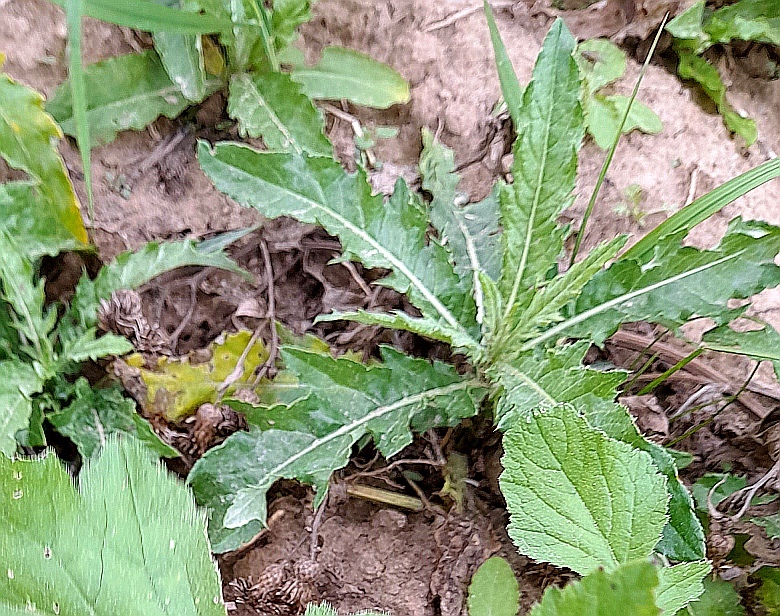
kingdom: Plantae
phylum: Tracheophyta
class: Magnoliopsida
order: Asterales
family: Asteraceae
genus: Cirsium
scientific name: Cirsium arvense
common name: Creeping thistle
